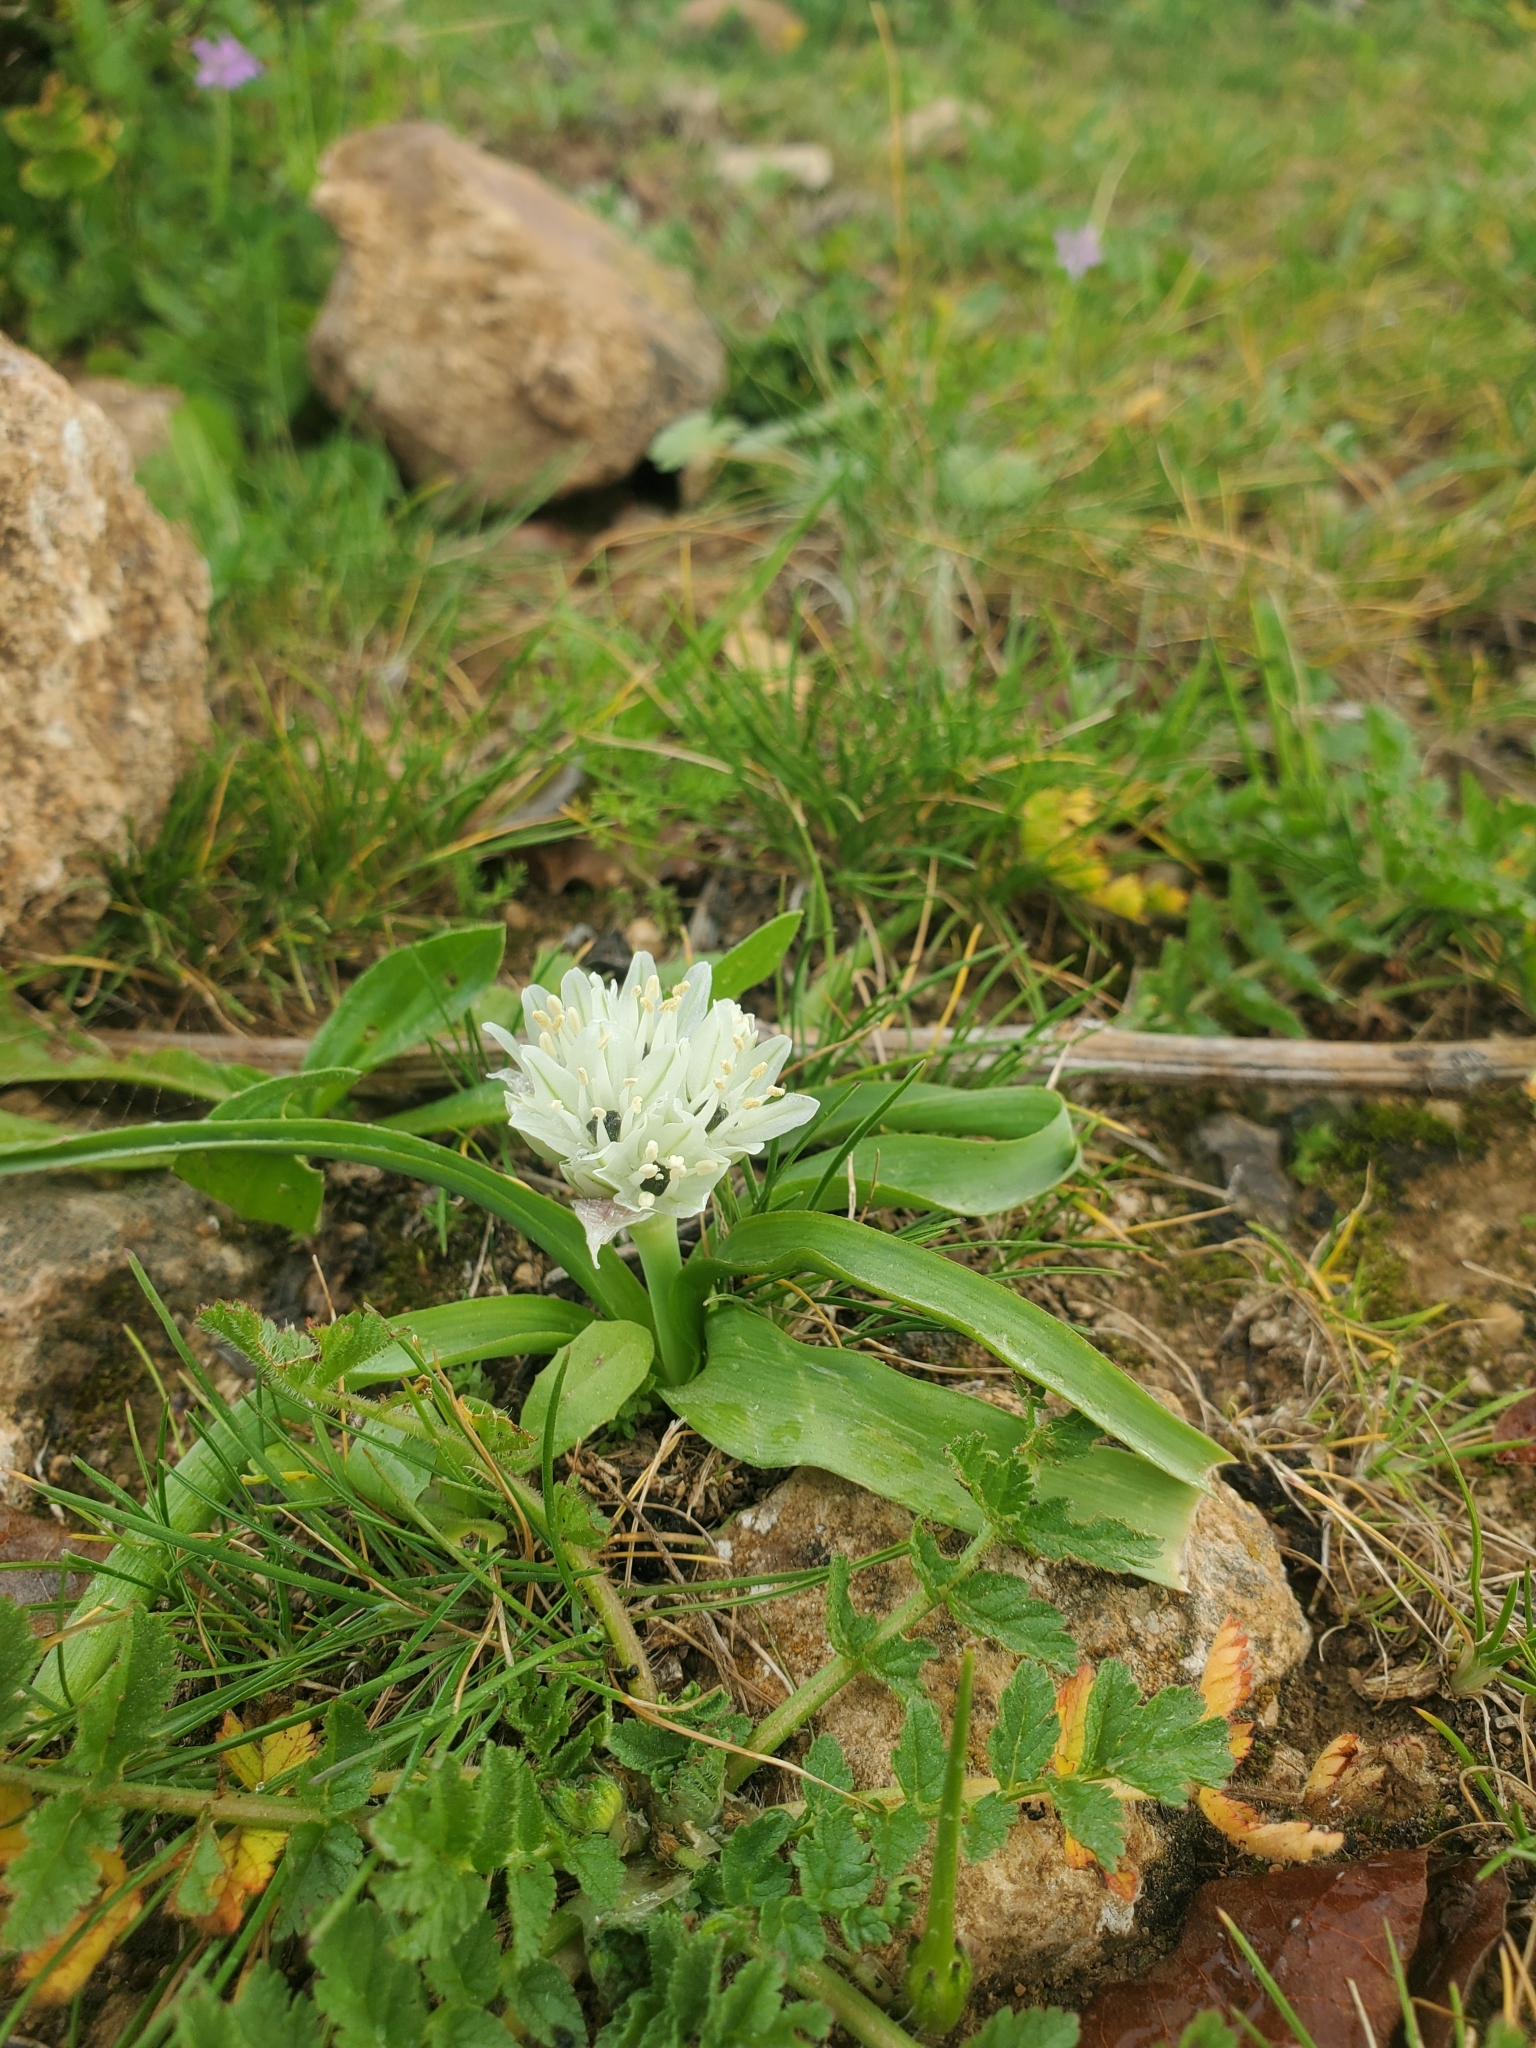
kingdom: Plantae
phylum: Tracheophyta
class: Liliopsida
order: Asparagales
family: Amaryllidaceae
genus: Allium
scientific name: Allium israeliticum
